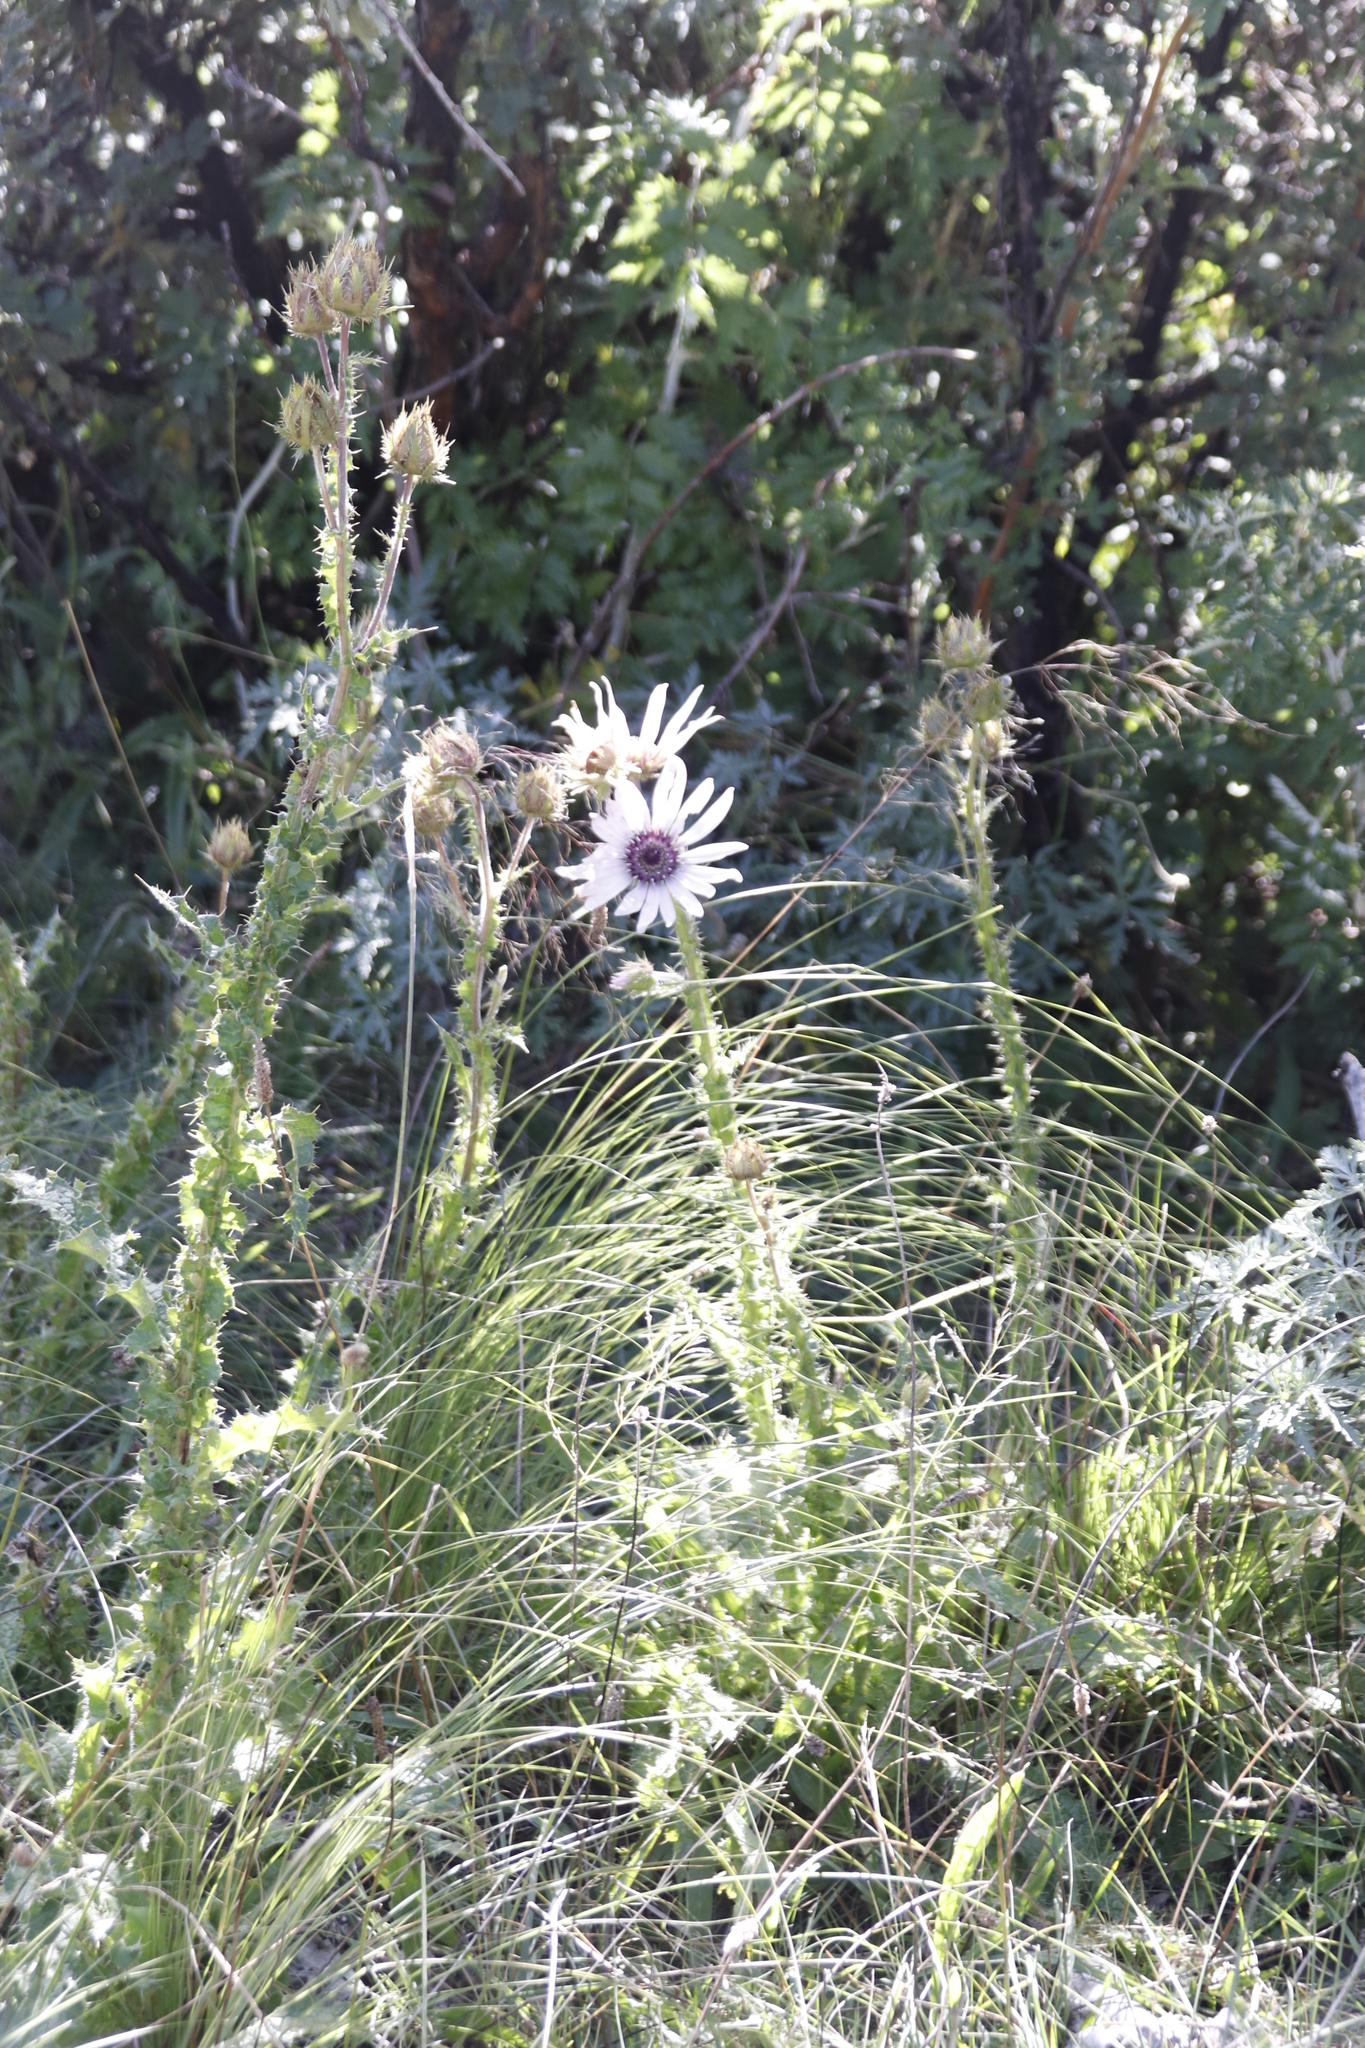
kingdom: Plantae
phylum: Tracheophyta
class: Magnoliopsida
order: Asterales
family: Asteraceae
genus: Berkheya
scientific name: Berkheya purpurea
